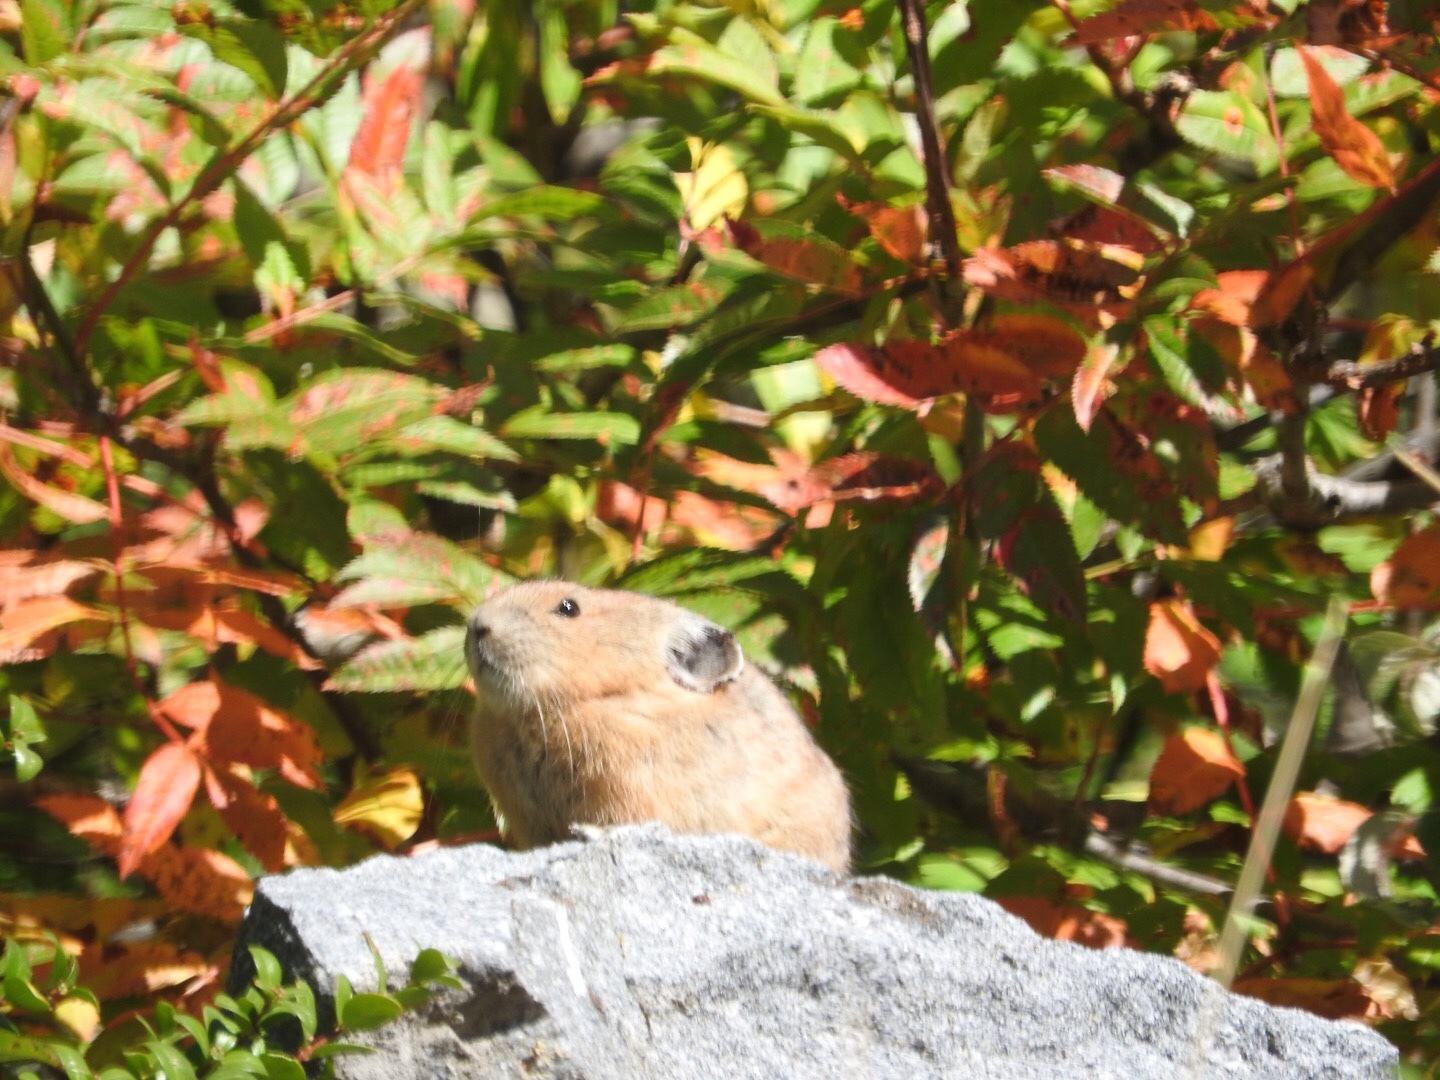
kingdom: Animalia
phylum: Chordata
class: Mammalia
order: Lagomorpha
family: Ochotonidae
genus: Ochotona
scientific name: Ochotona princeps
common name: American pika
